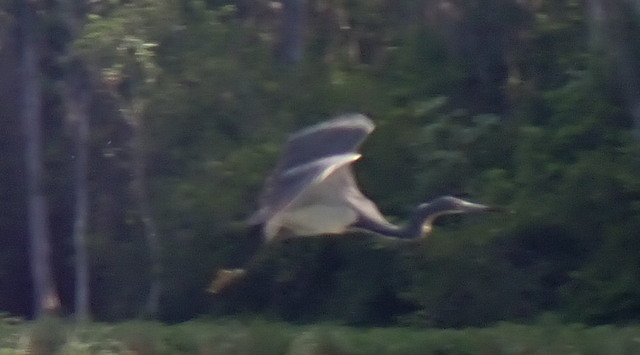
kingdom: Animalia
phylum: Chordata
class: Aves
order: Pelecaniformes
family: Ardeidae
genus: Egretta
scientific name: Egretta tricolor
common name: Tricolored heron
